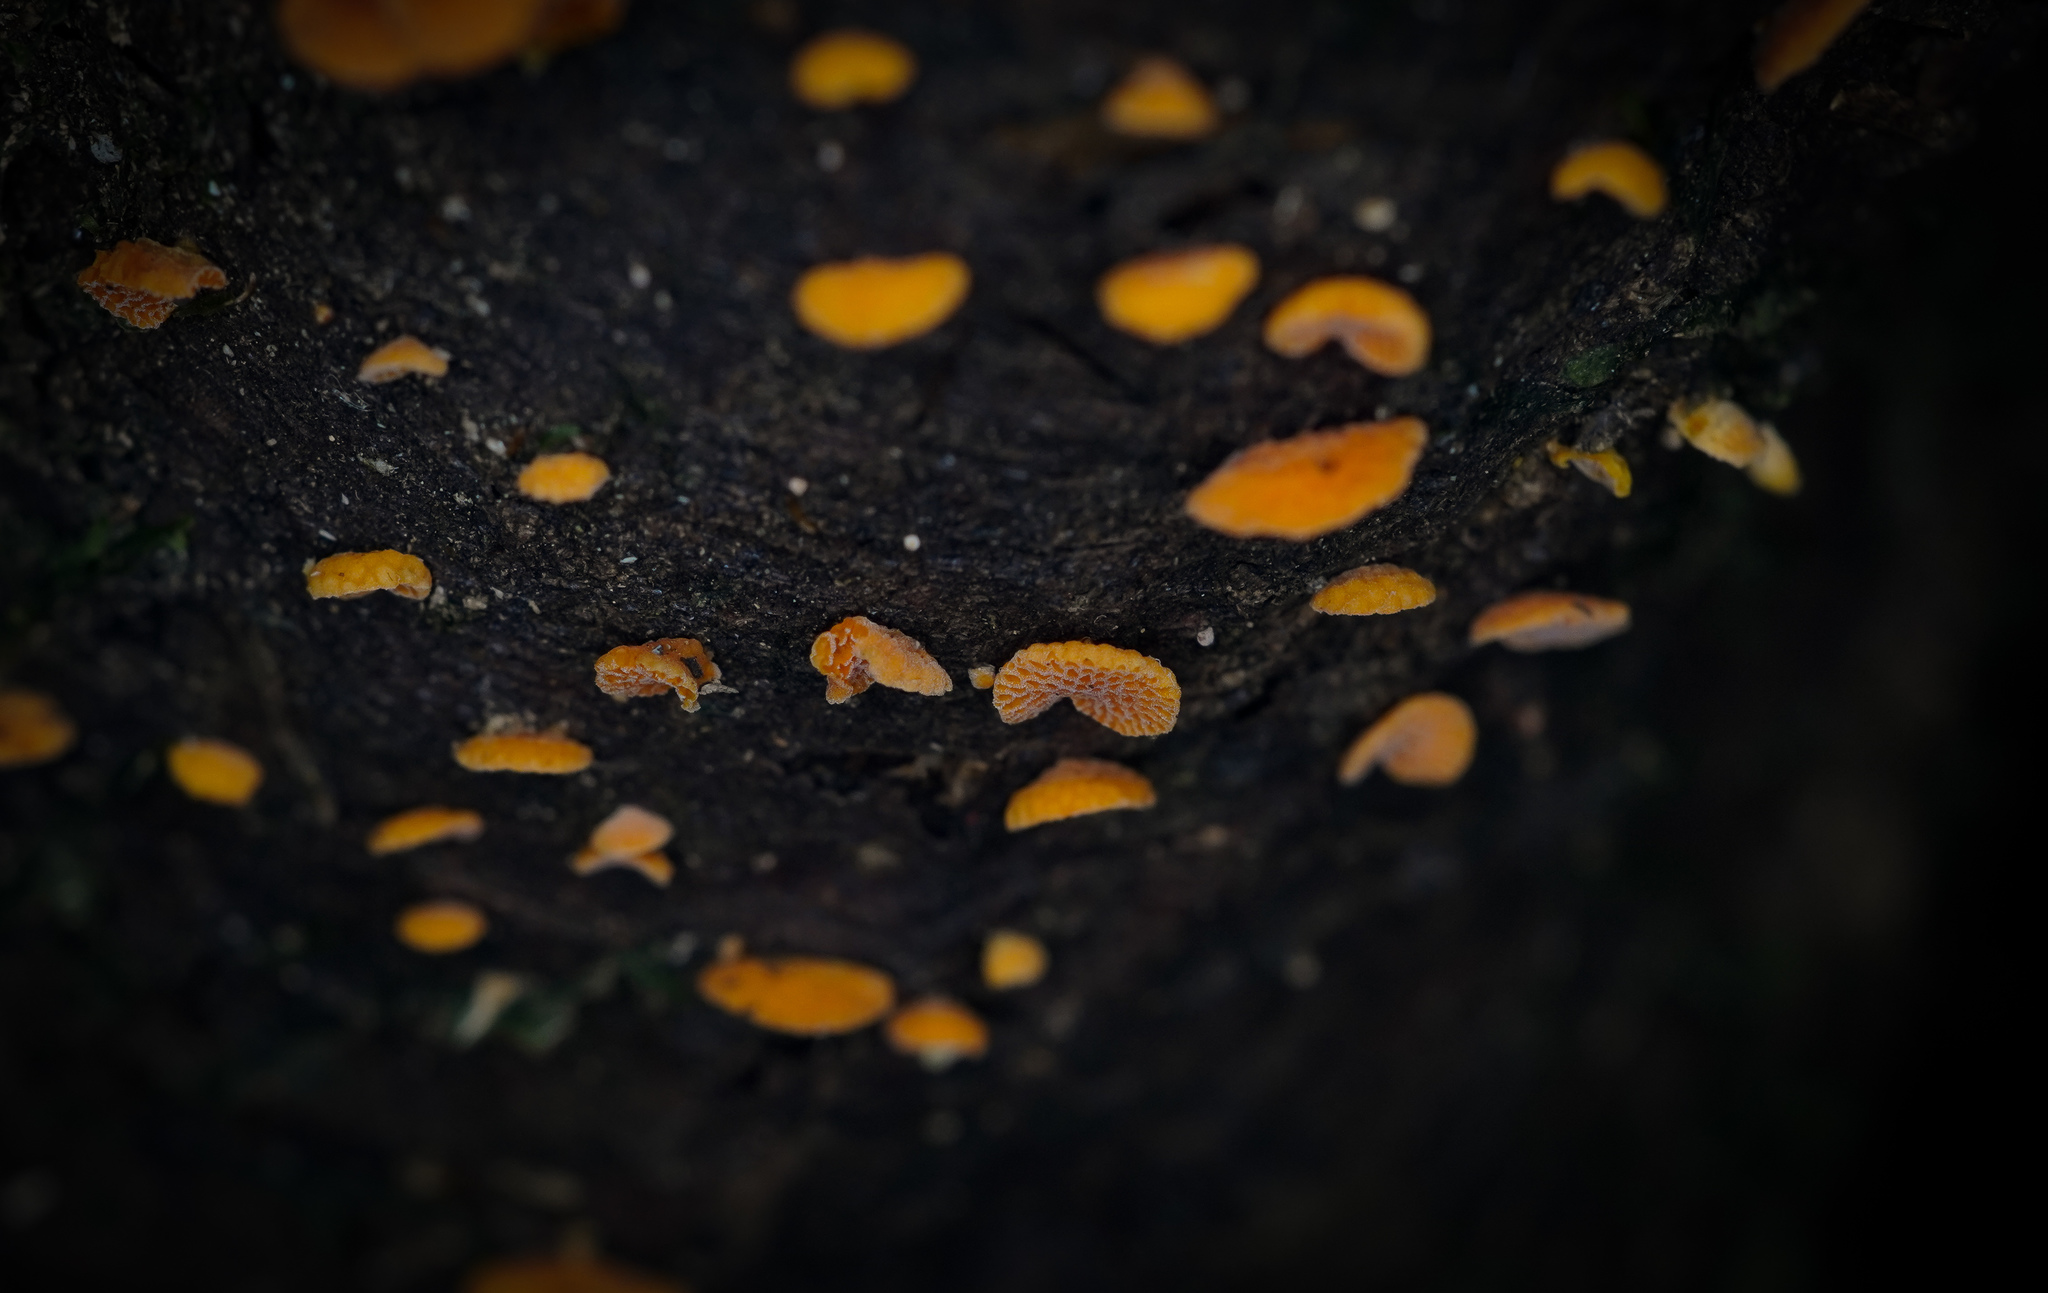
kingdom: Fungi
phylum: Basidiomycota
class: Agaricomycetes
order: Agaricales
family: Mycenaceae
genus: Favolaschia
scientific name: Favolaschia claudopus
